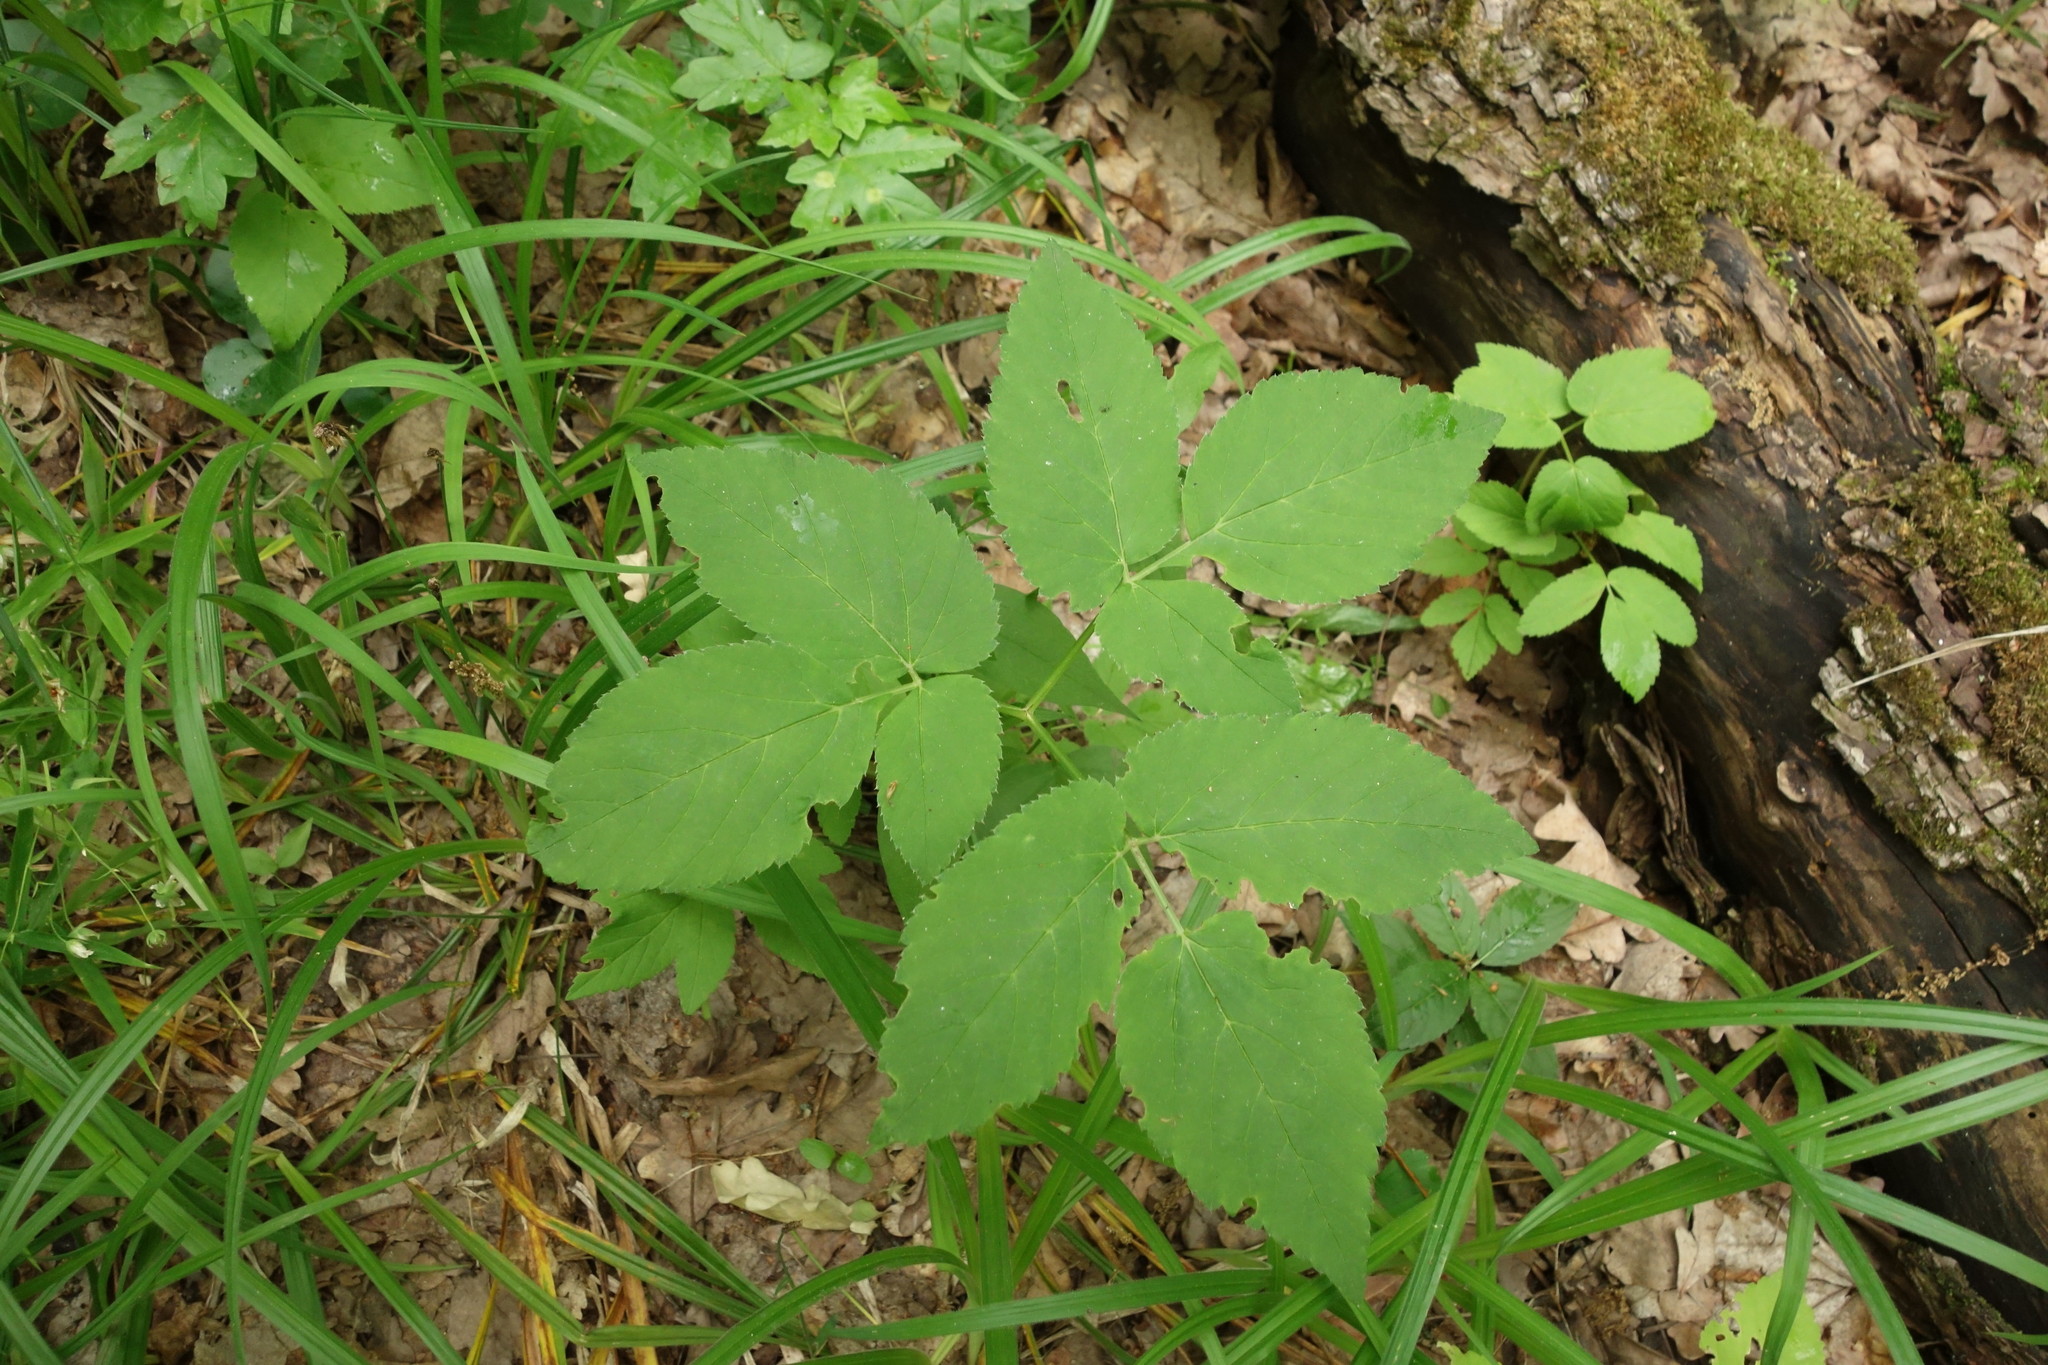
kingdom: Plantae
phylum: Tracheophyta
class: Magnoliopsida
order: Apiales
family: Apiaceae
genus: Aegopodium
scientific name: Aegopodium podagraria
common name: Ground-elder
